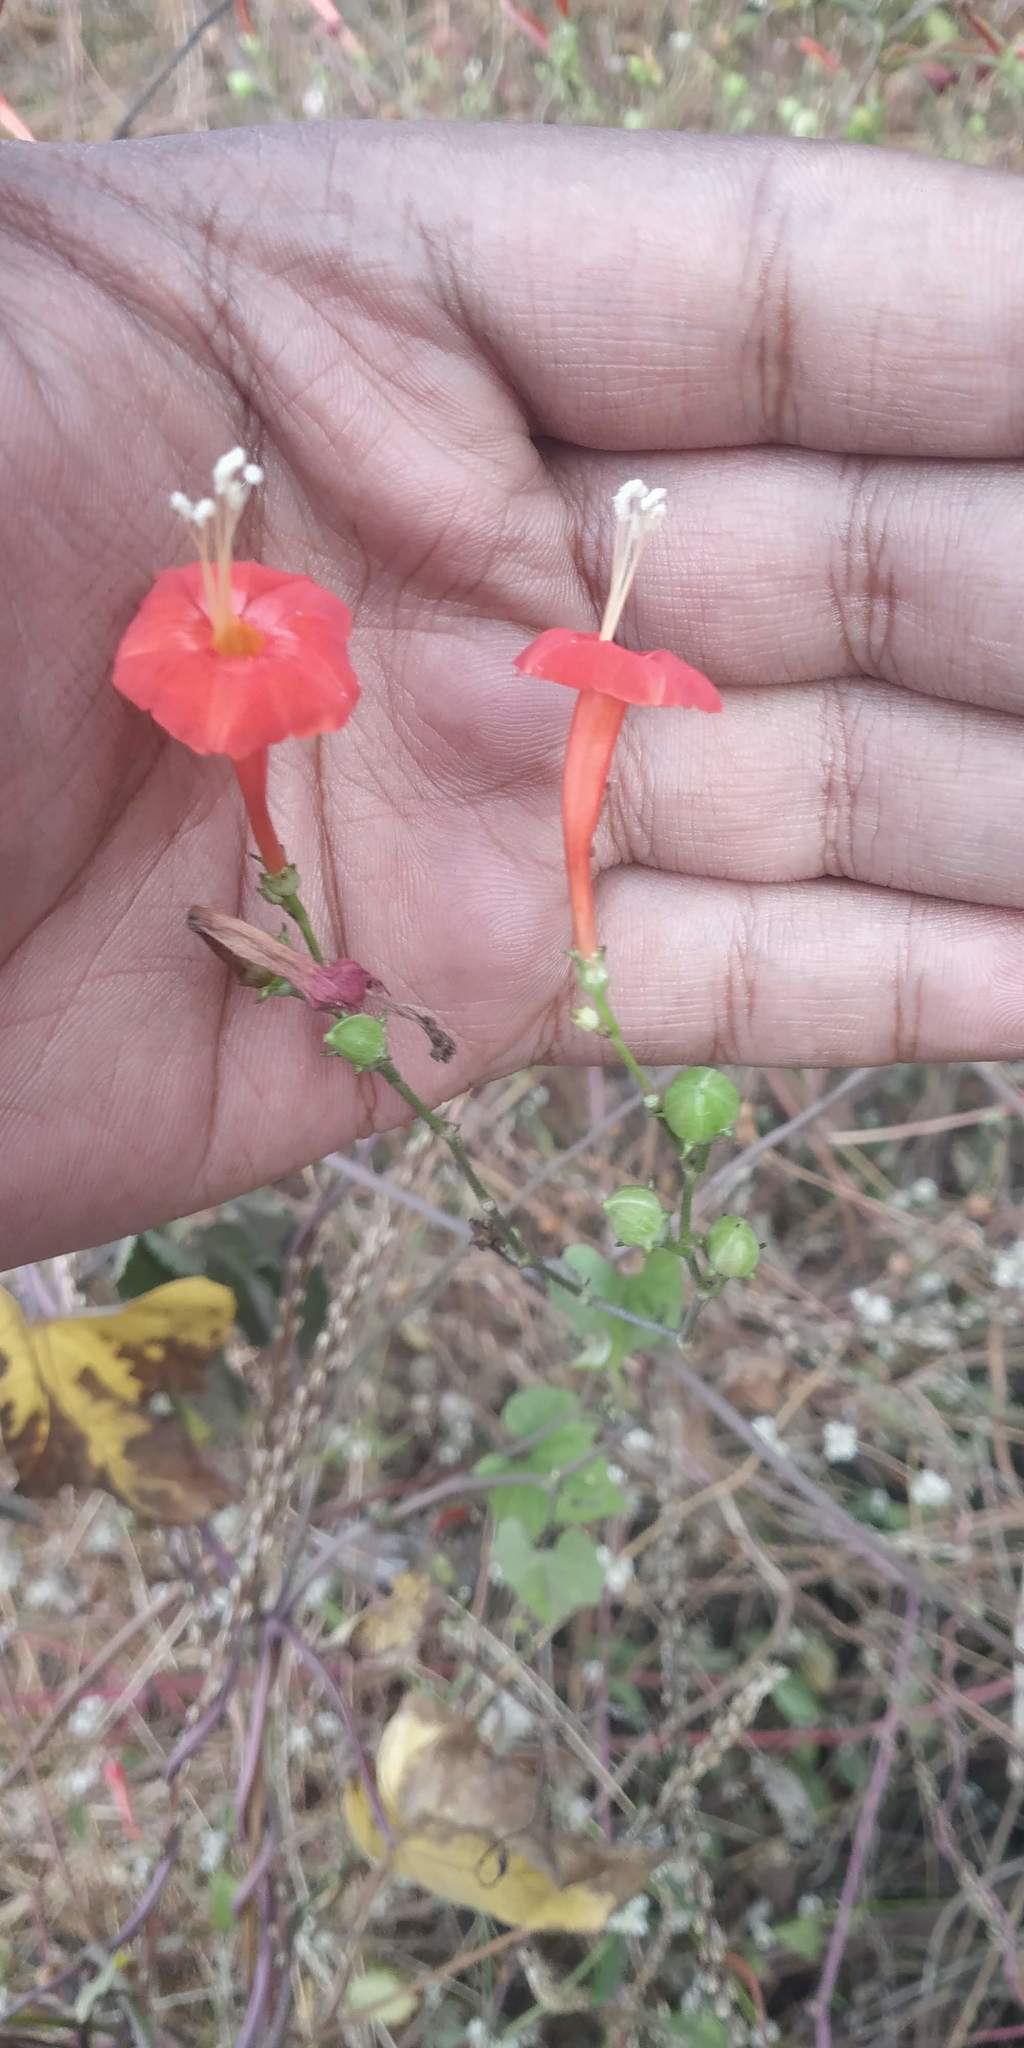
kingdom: Plantae
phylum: Tracheophyta
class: Magnoliopsida
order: Solanales
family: Convolvulaceae
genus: Ipomoea
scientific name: Ipomoea hederifolia
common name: Ivy-leaf morning-glory
